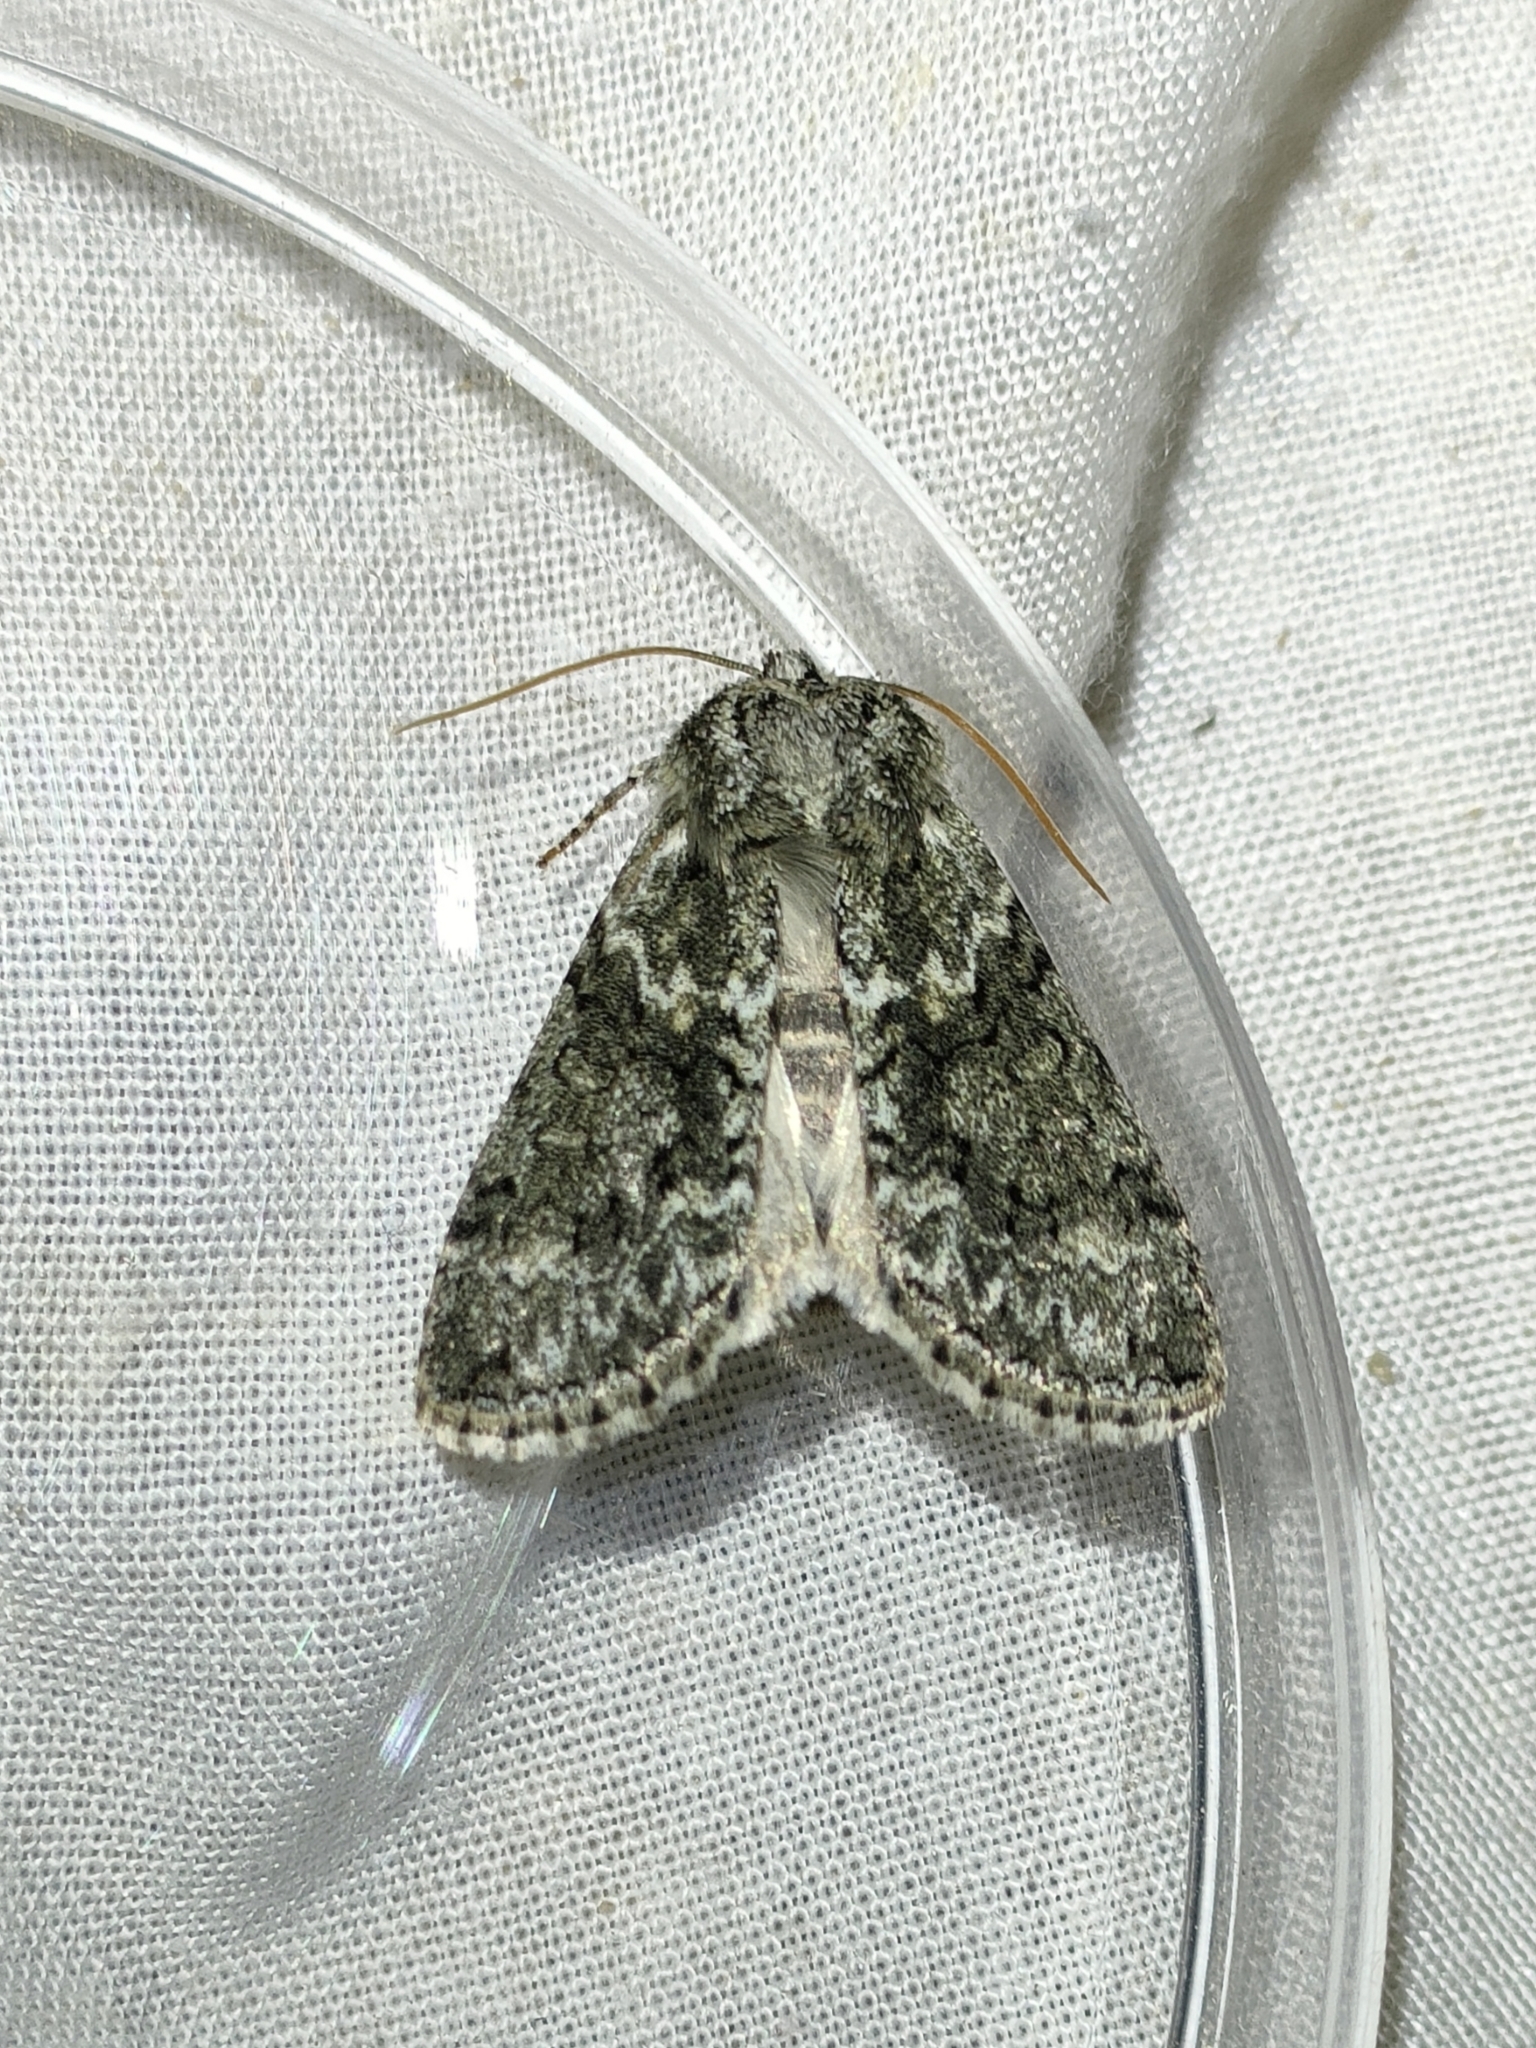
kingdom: Animalia
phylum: Arthropoda
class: Insecta
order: Lepidoptera
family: Drepanidae
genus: Polyploca
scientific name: Polyploca ridens
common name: Frosted green
